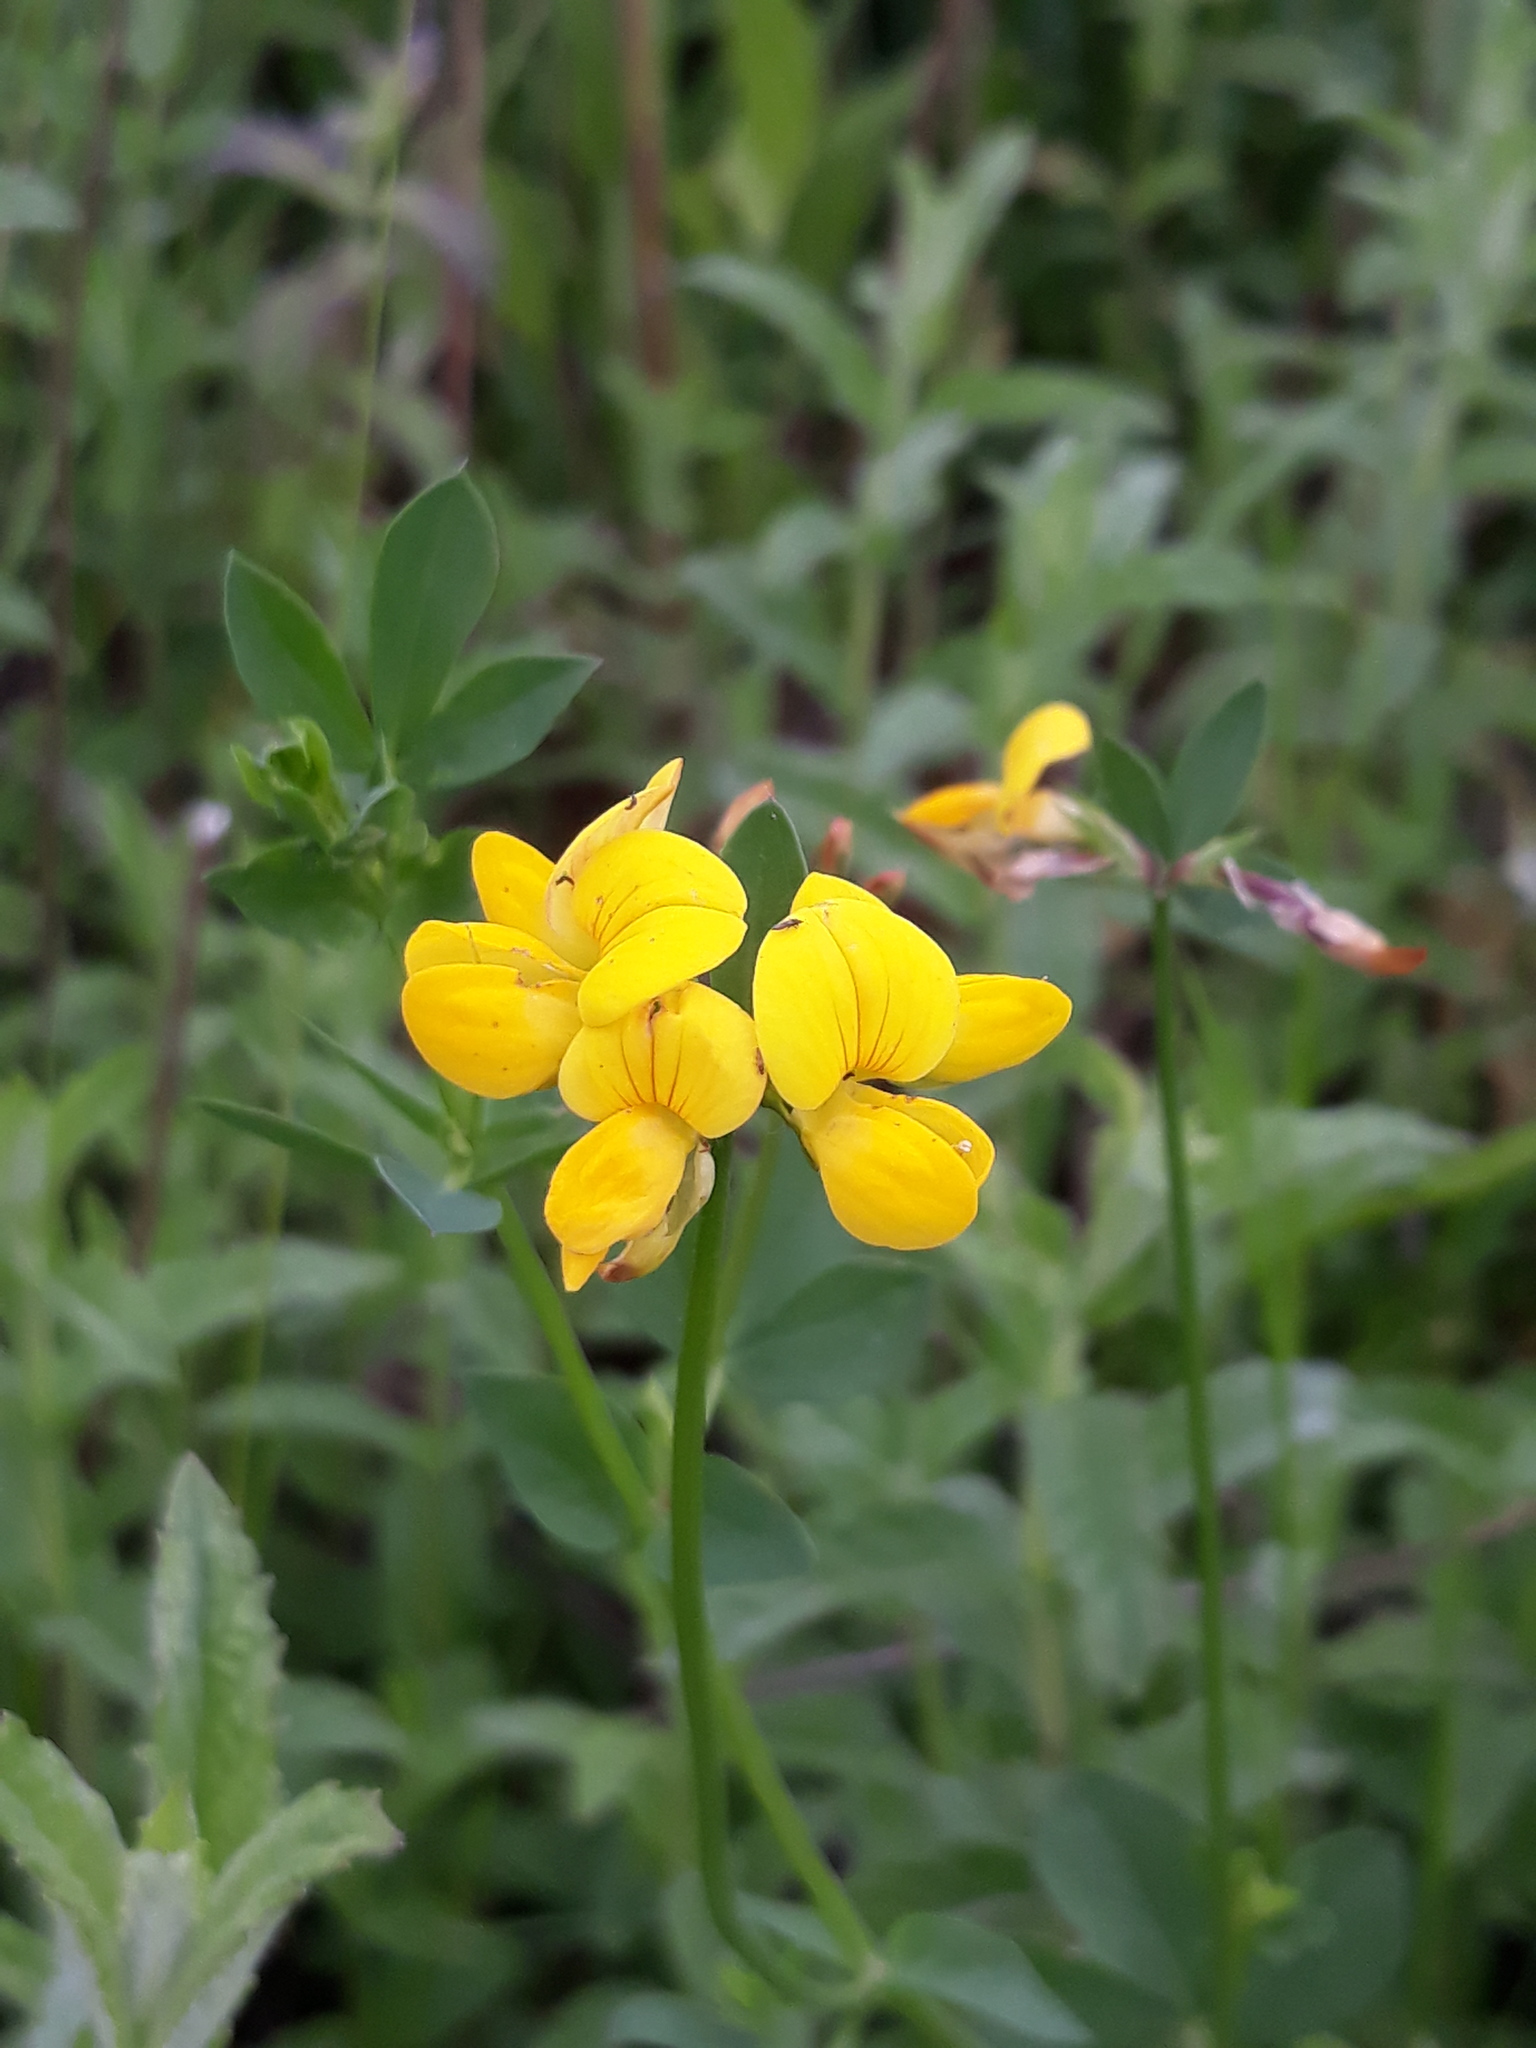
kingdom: Plantae
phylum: Tracheophyta
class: Magnoliopsida
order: Fabales
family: Fabaceae
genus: Lotus
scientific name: Lotus corniculatus
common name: Common bird's-foot-trefoil
